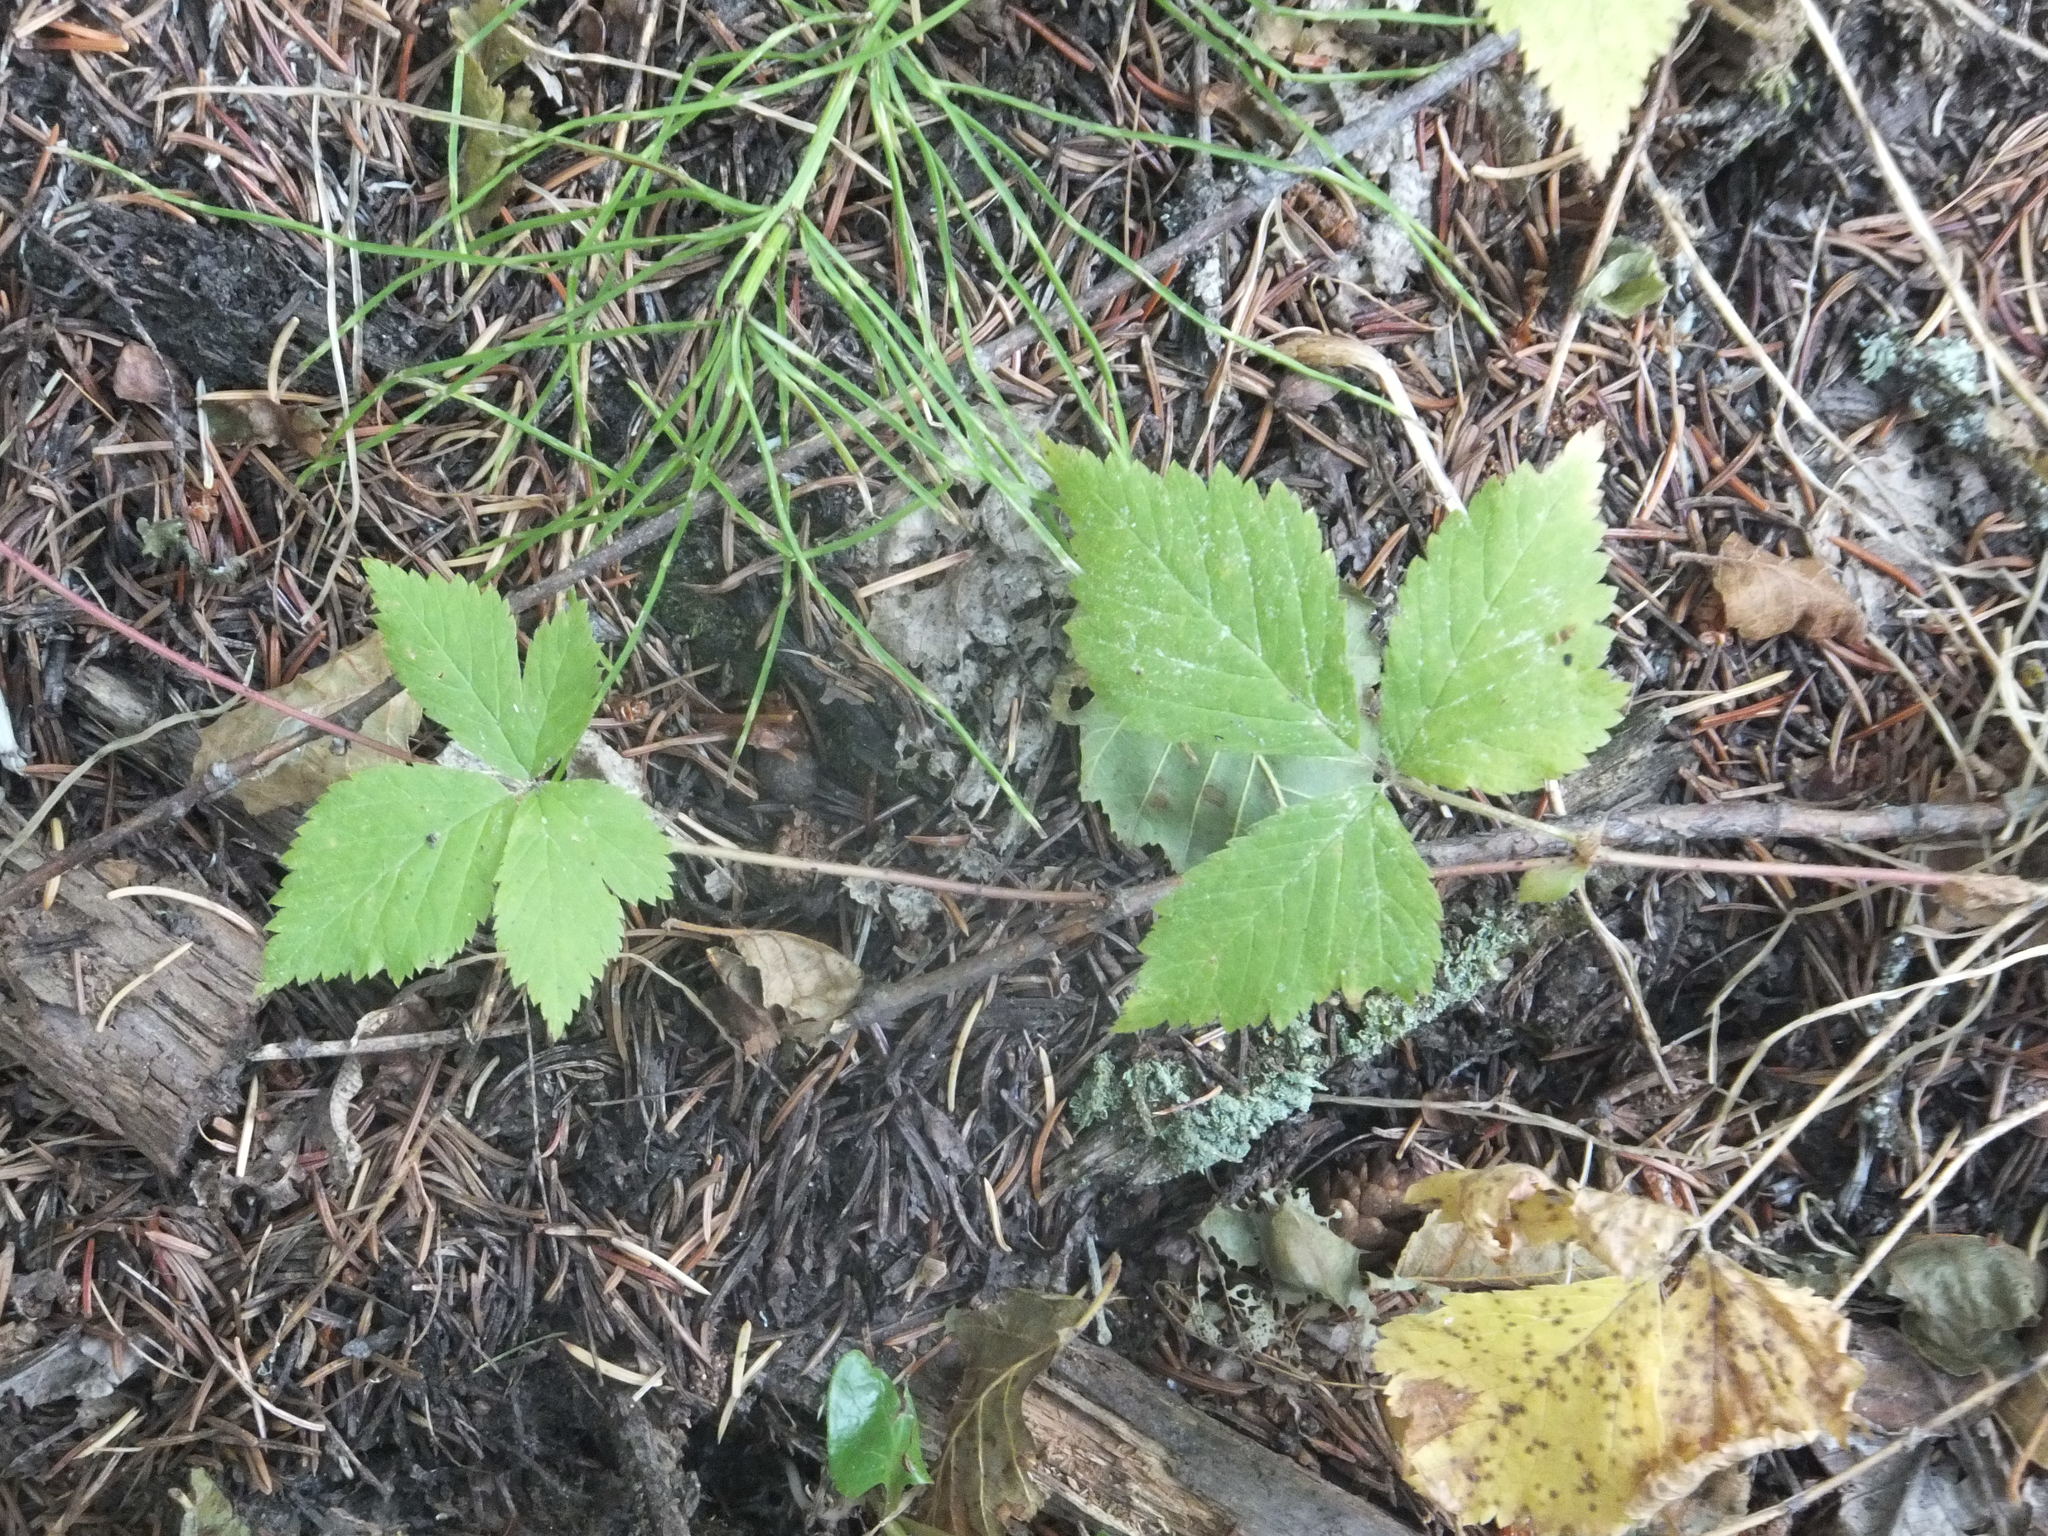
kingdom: Plantae
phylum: Tracheophyta
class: Magnoliopsida
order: Rosales
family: Rosaceae
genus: Rubus
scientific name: Rubus pubescens
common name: Dwarf raspberry
